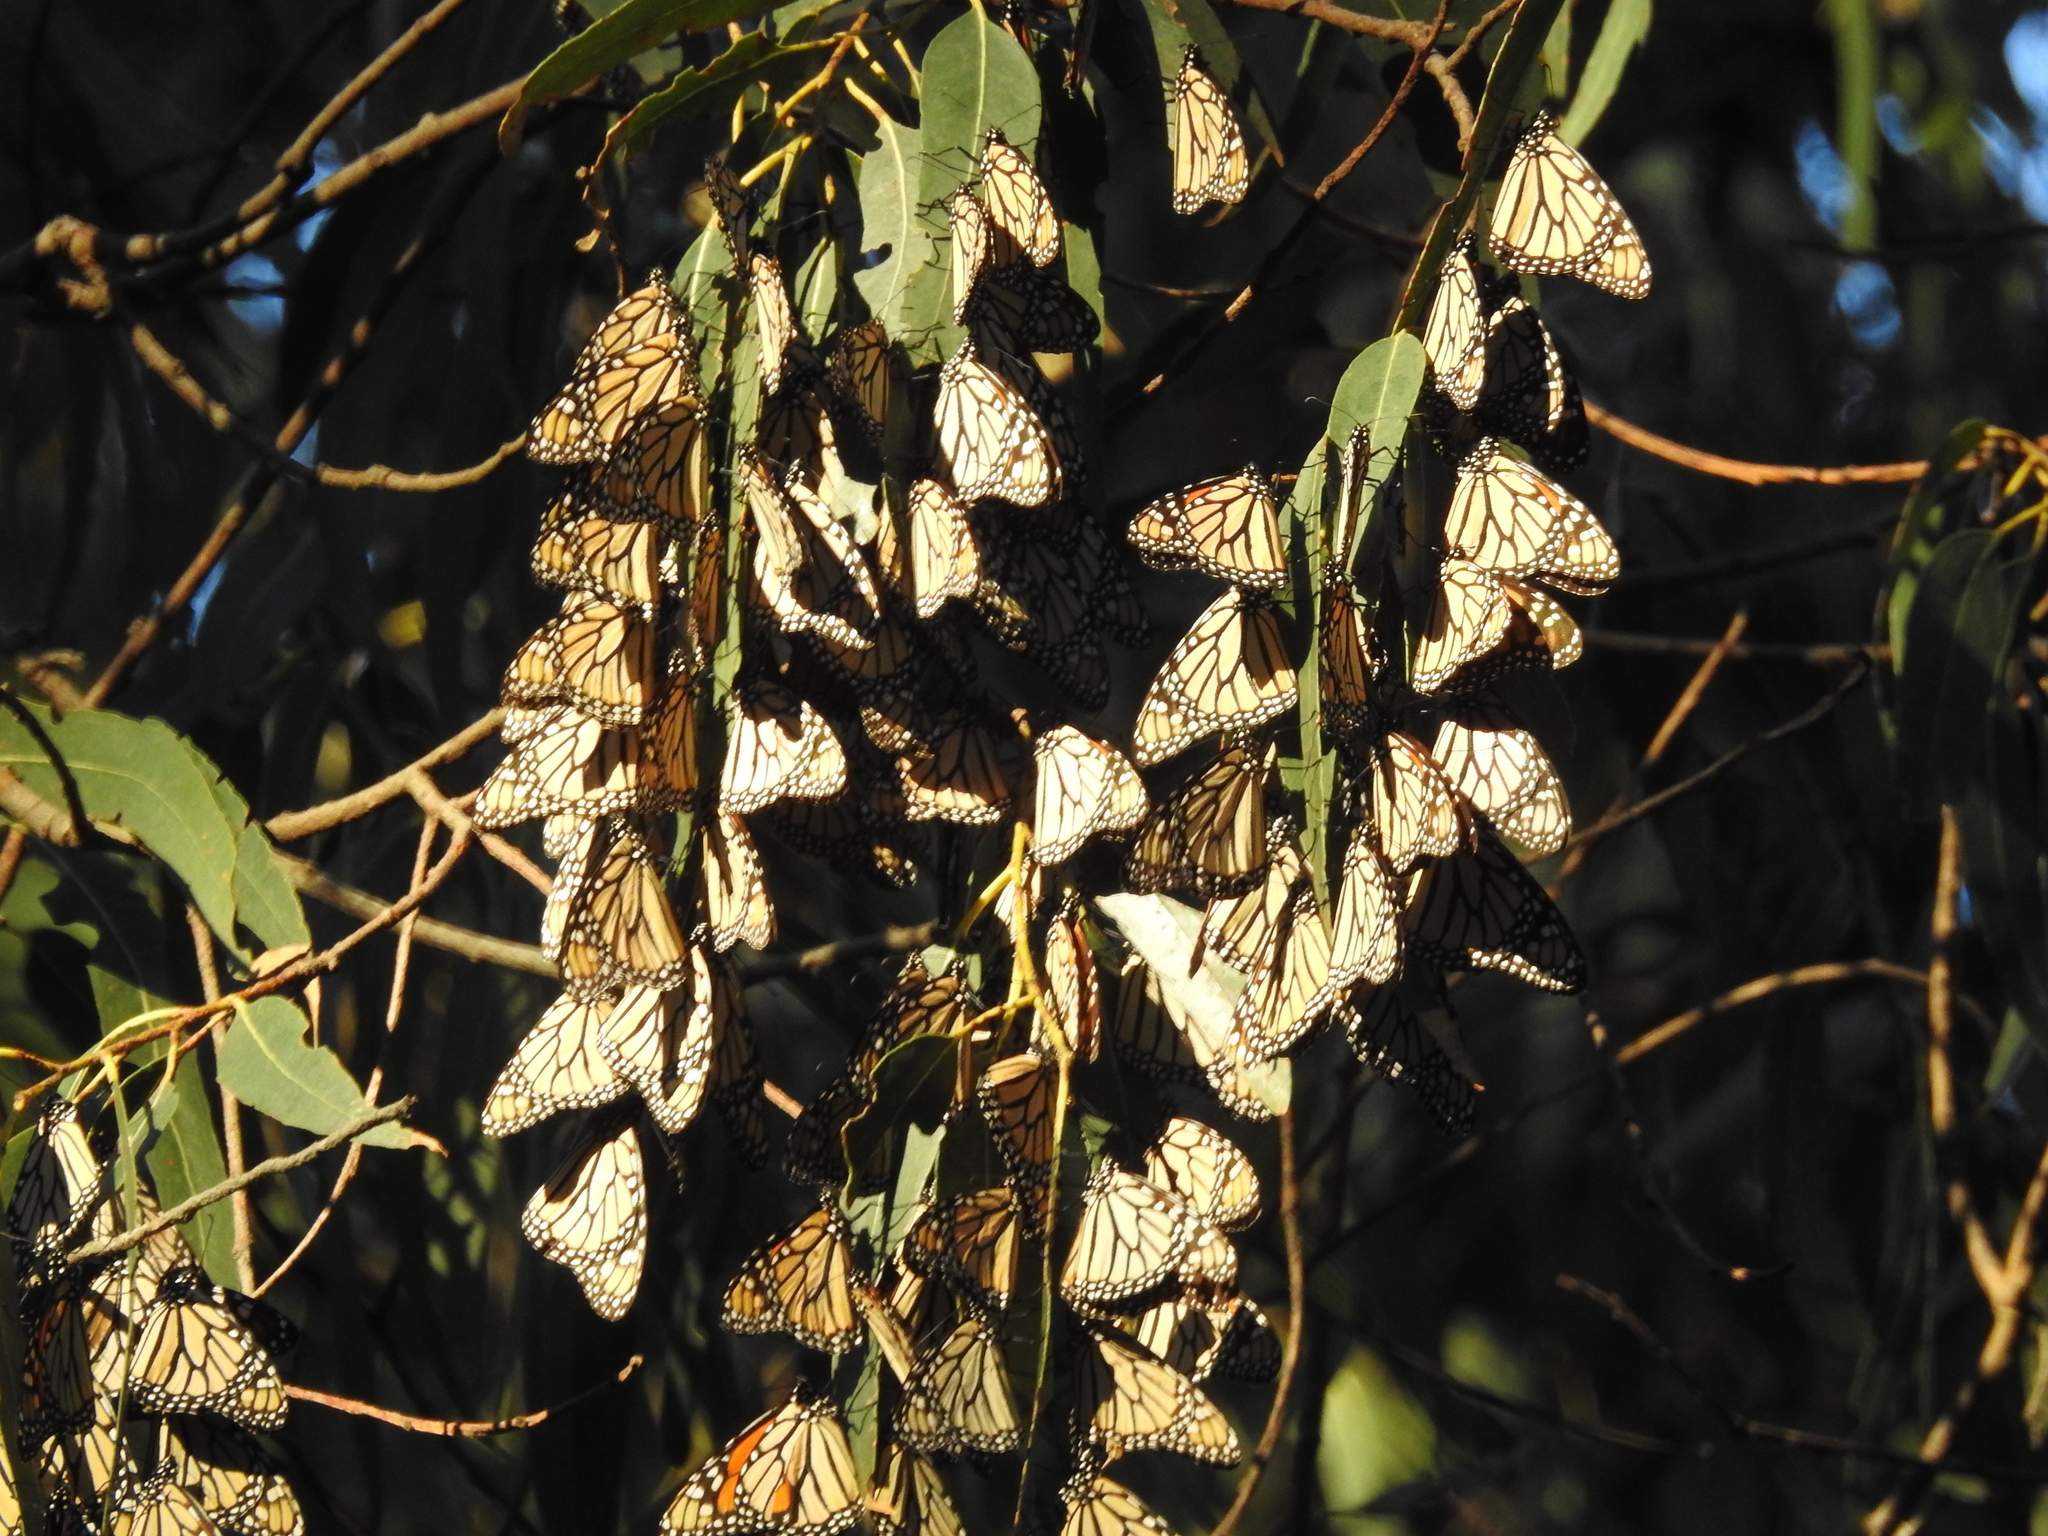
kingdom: Animalia
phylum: Arthropoda
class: Insecta
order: Lepidoptera
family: Nymphalidae
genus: Danaus
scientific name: Danaus plexippus
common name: Monarch
